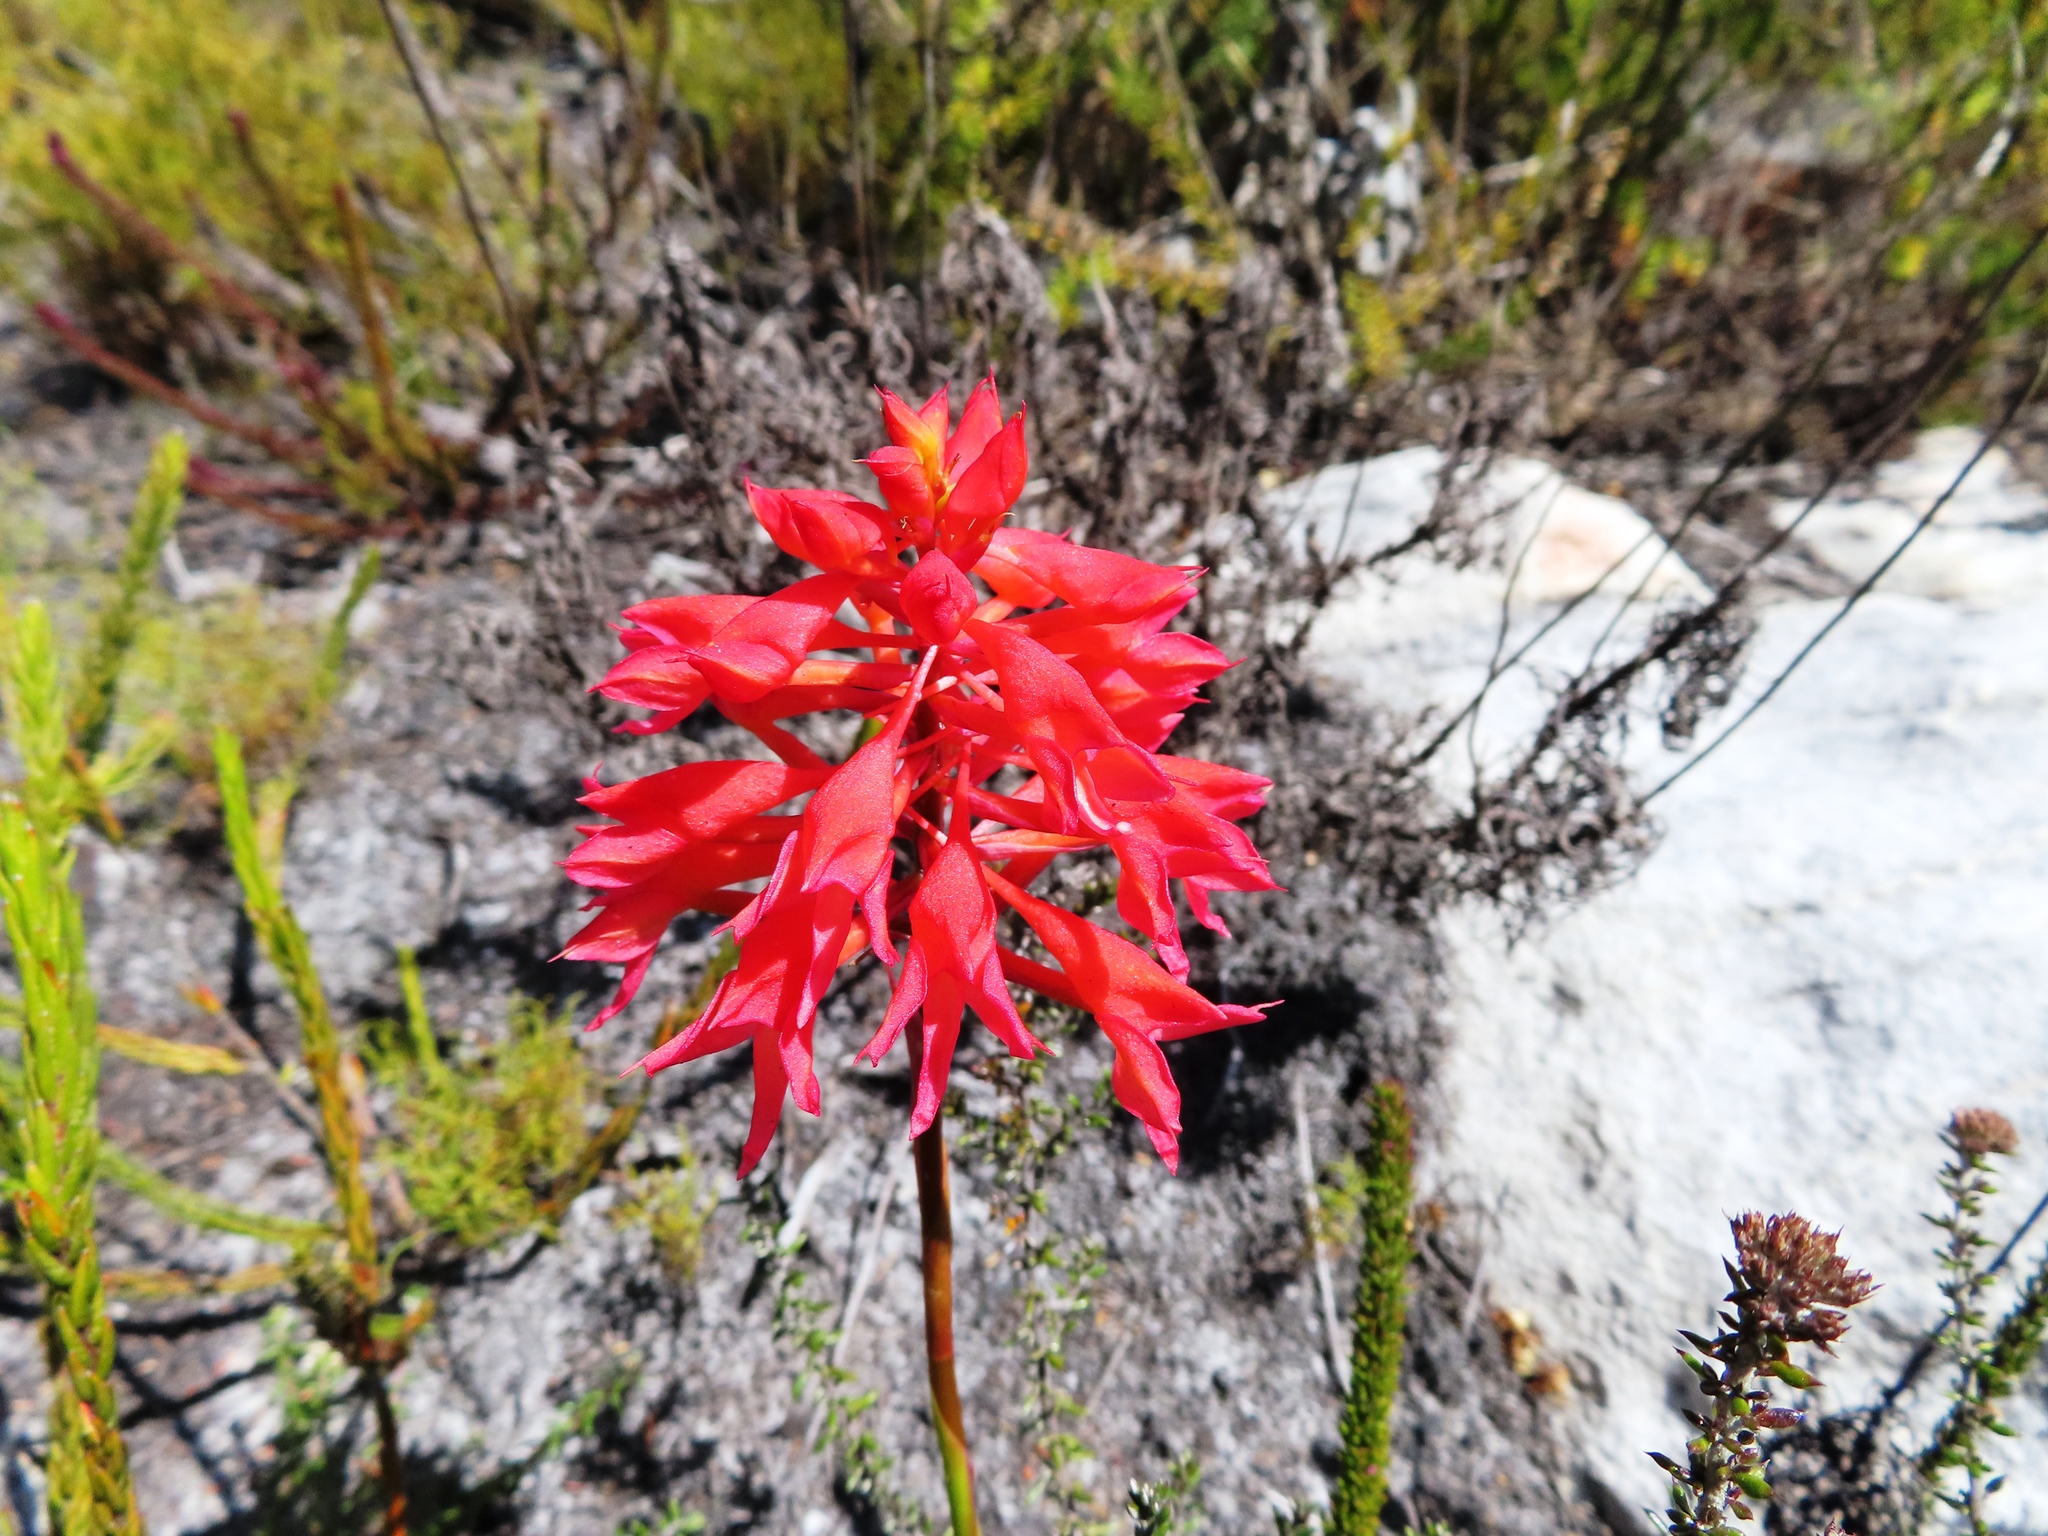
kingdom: Plantae
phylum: Tracheophyta
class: Liliopsida
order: Asparagales
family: Orchidaceae
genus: Disa
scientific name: Disa ferruginea
